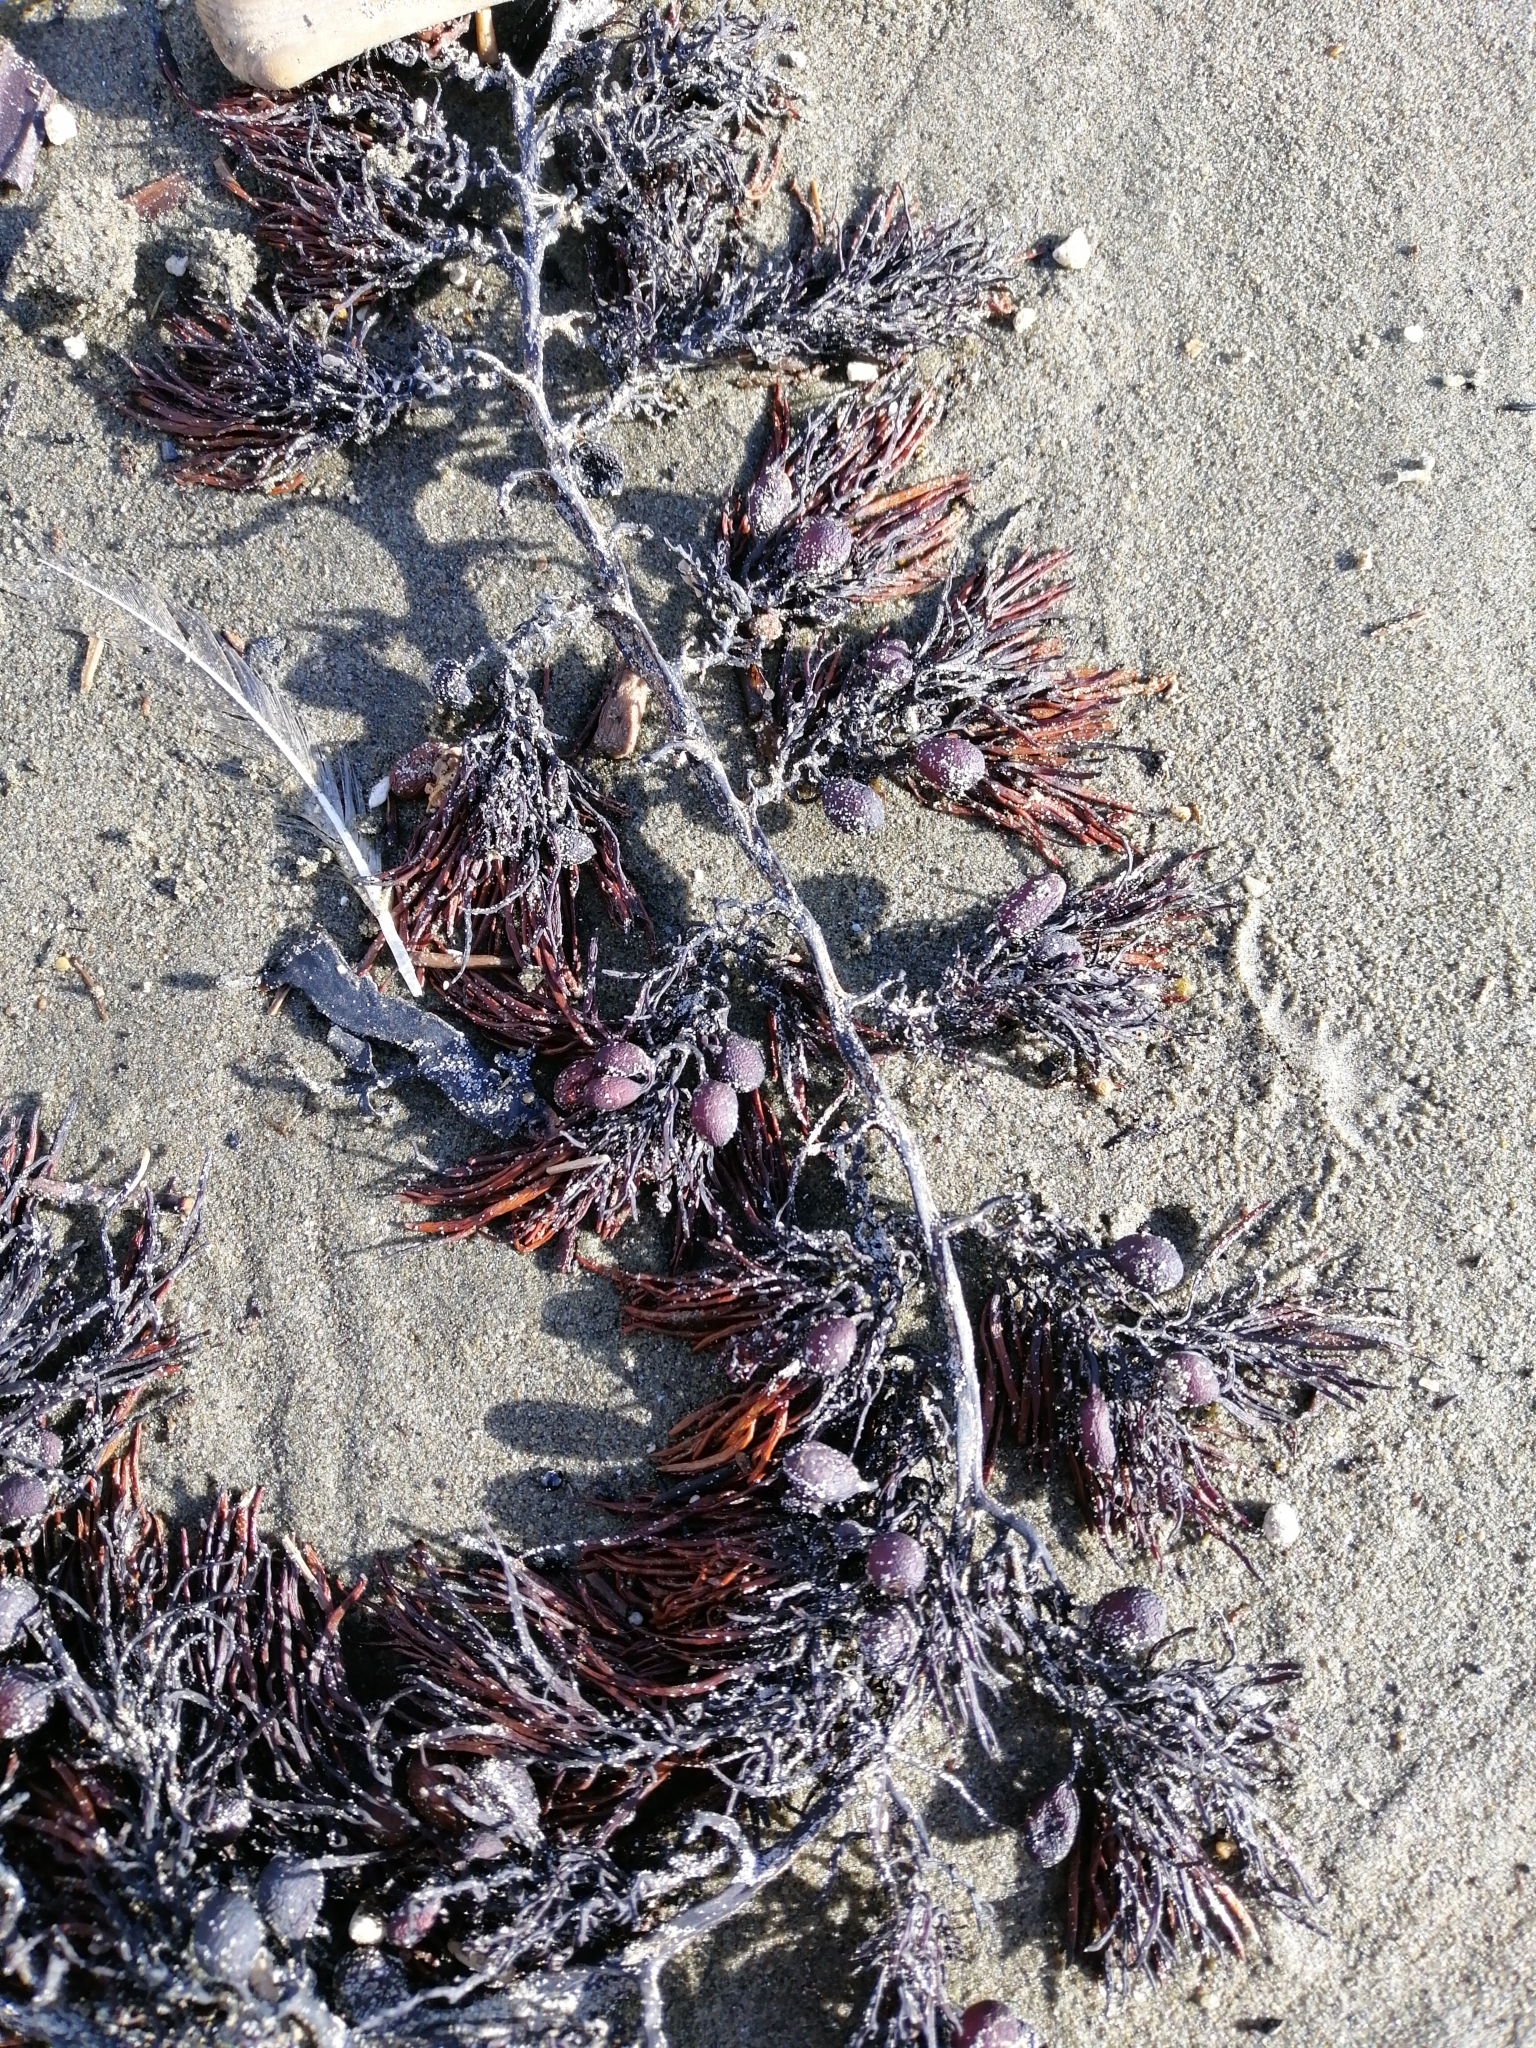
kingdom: Chromista
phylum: Ochrophyta
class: Phaeophyceae
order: Fucales
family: Sargassaceae
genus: Cystophora
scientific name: Cystophora retroflexa
